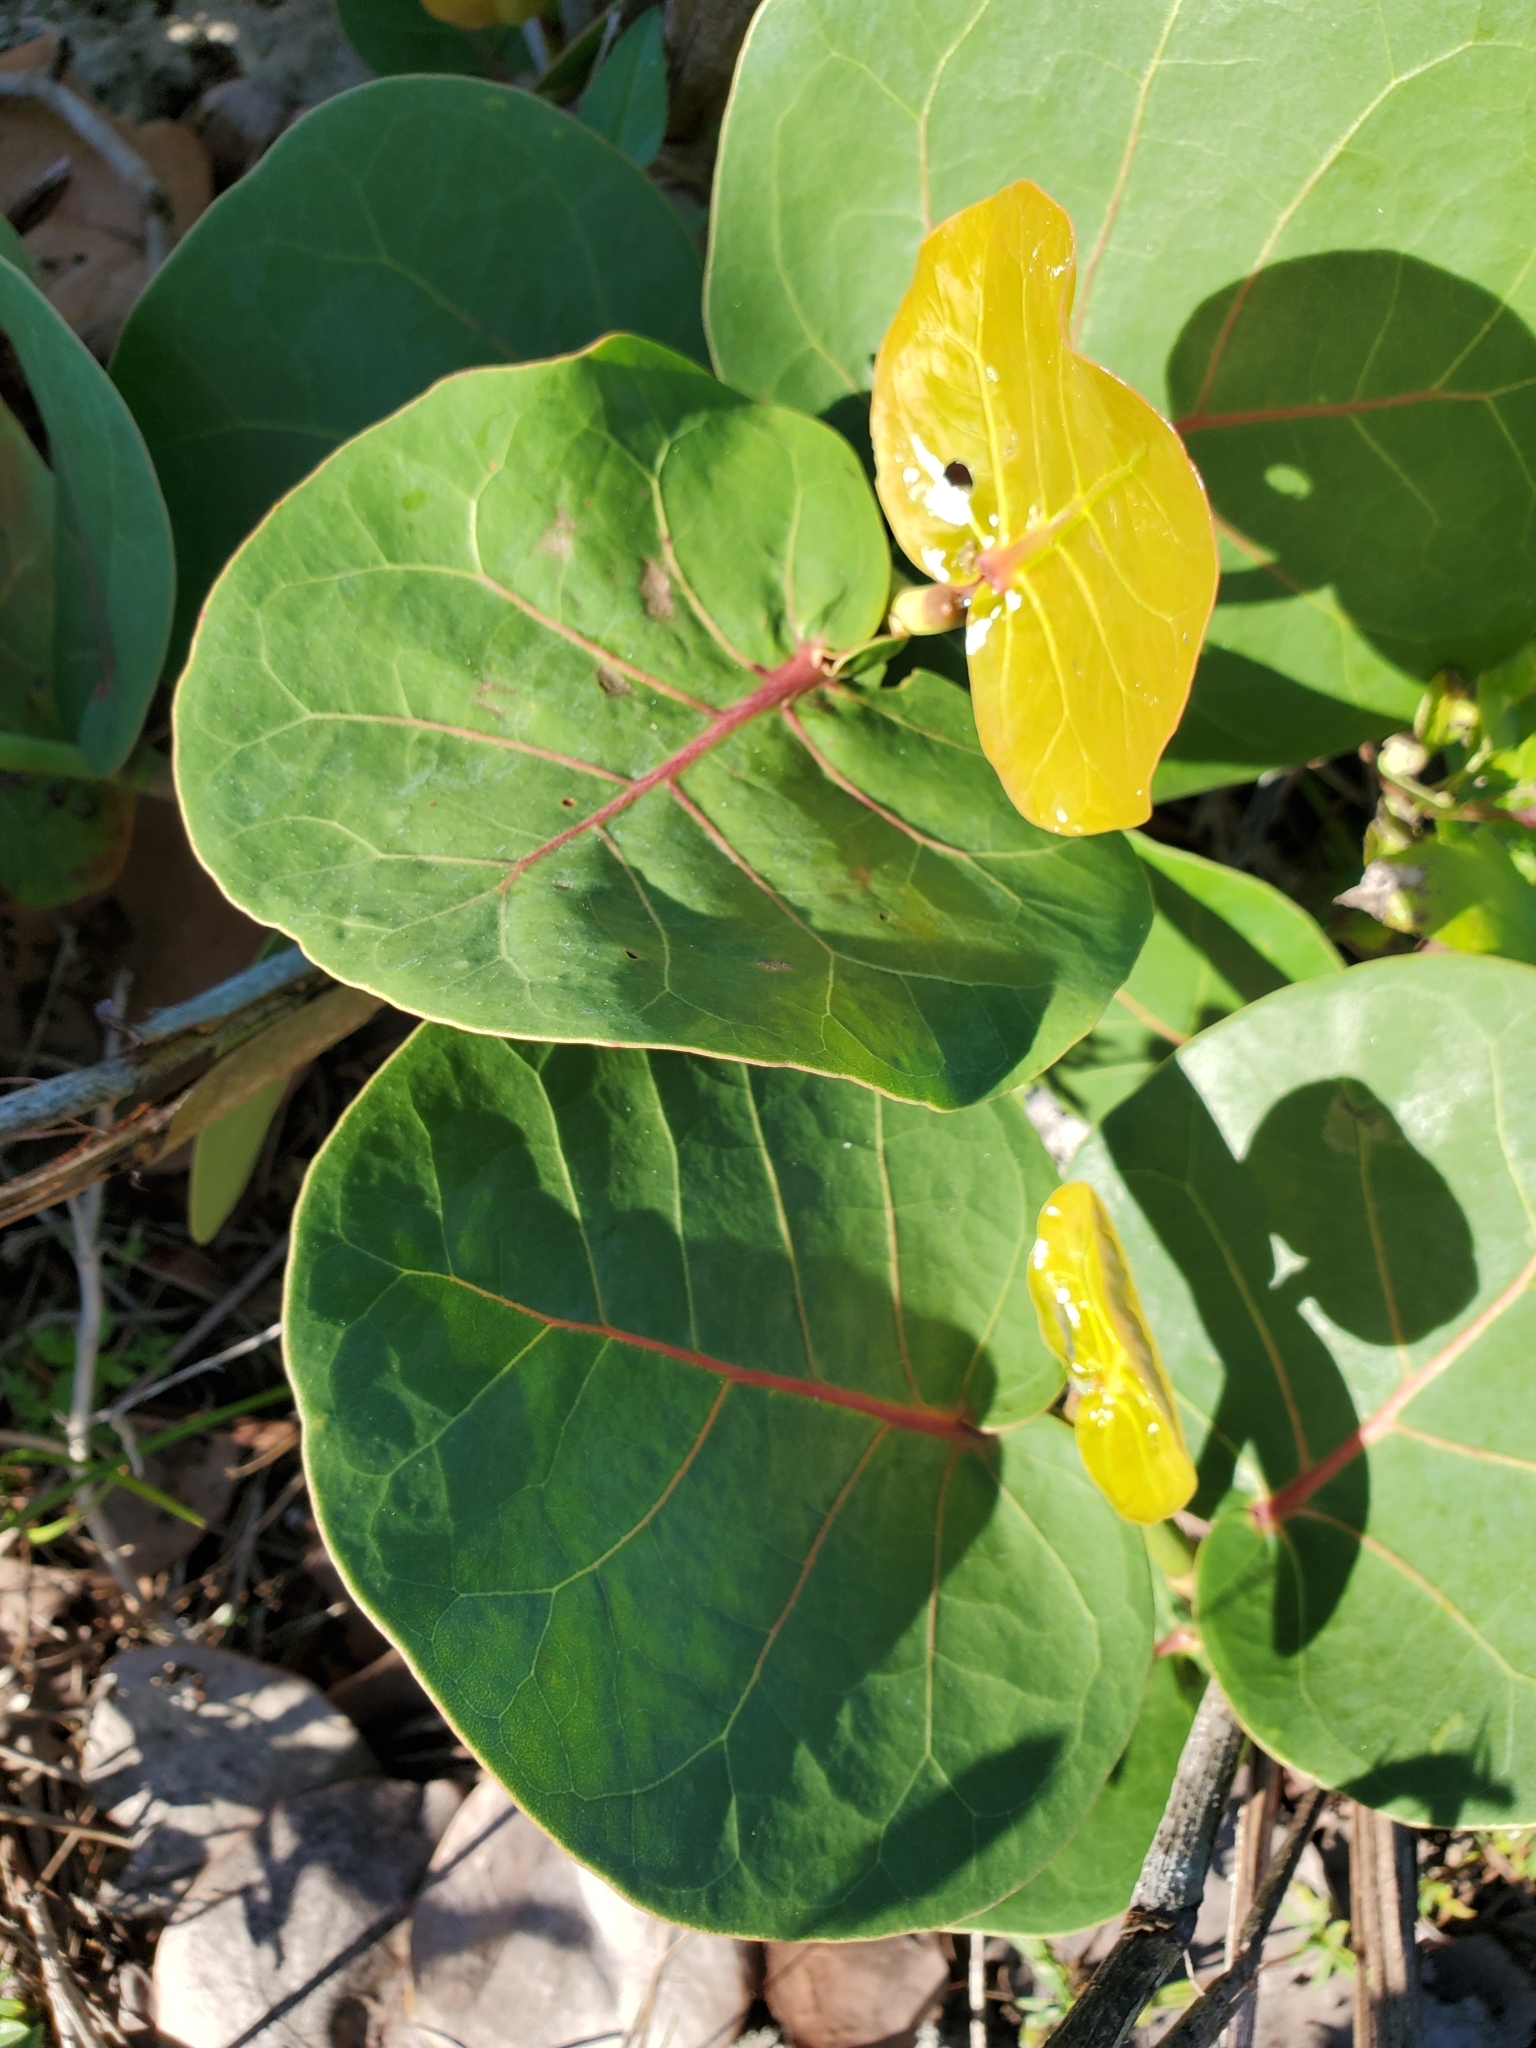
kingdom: Plantae
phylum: Tracheophyta
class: Magnoliopsida
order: Caryophyllales
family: Polygonaceae
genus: Coccoloba
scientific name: Coccoloba uvifera
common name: Seagrape
